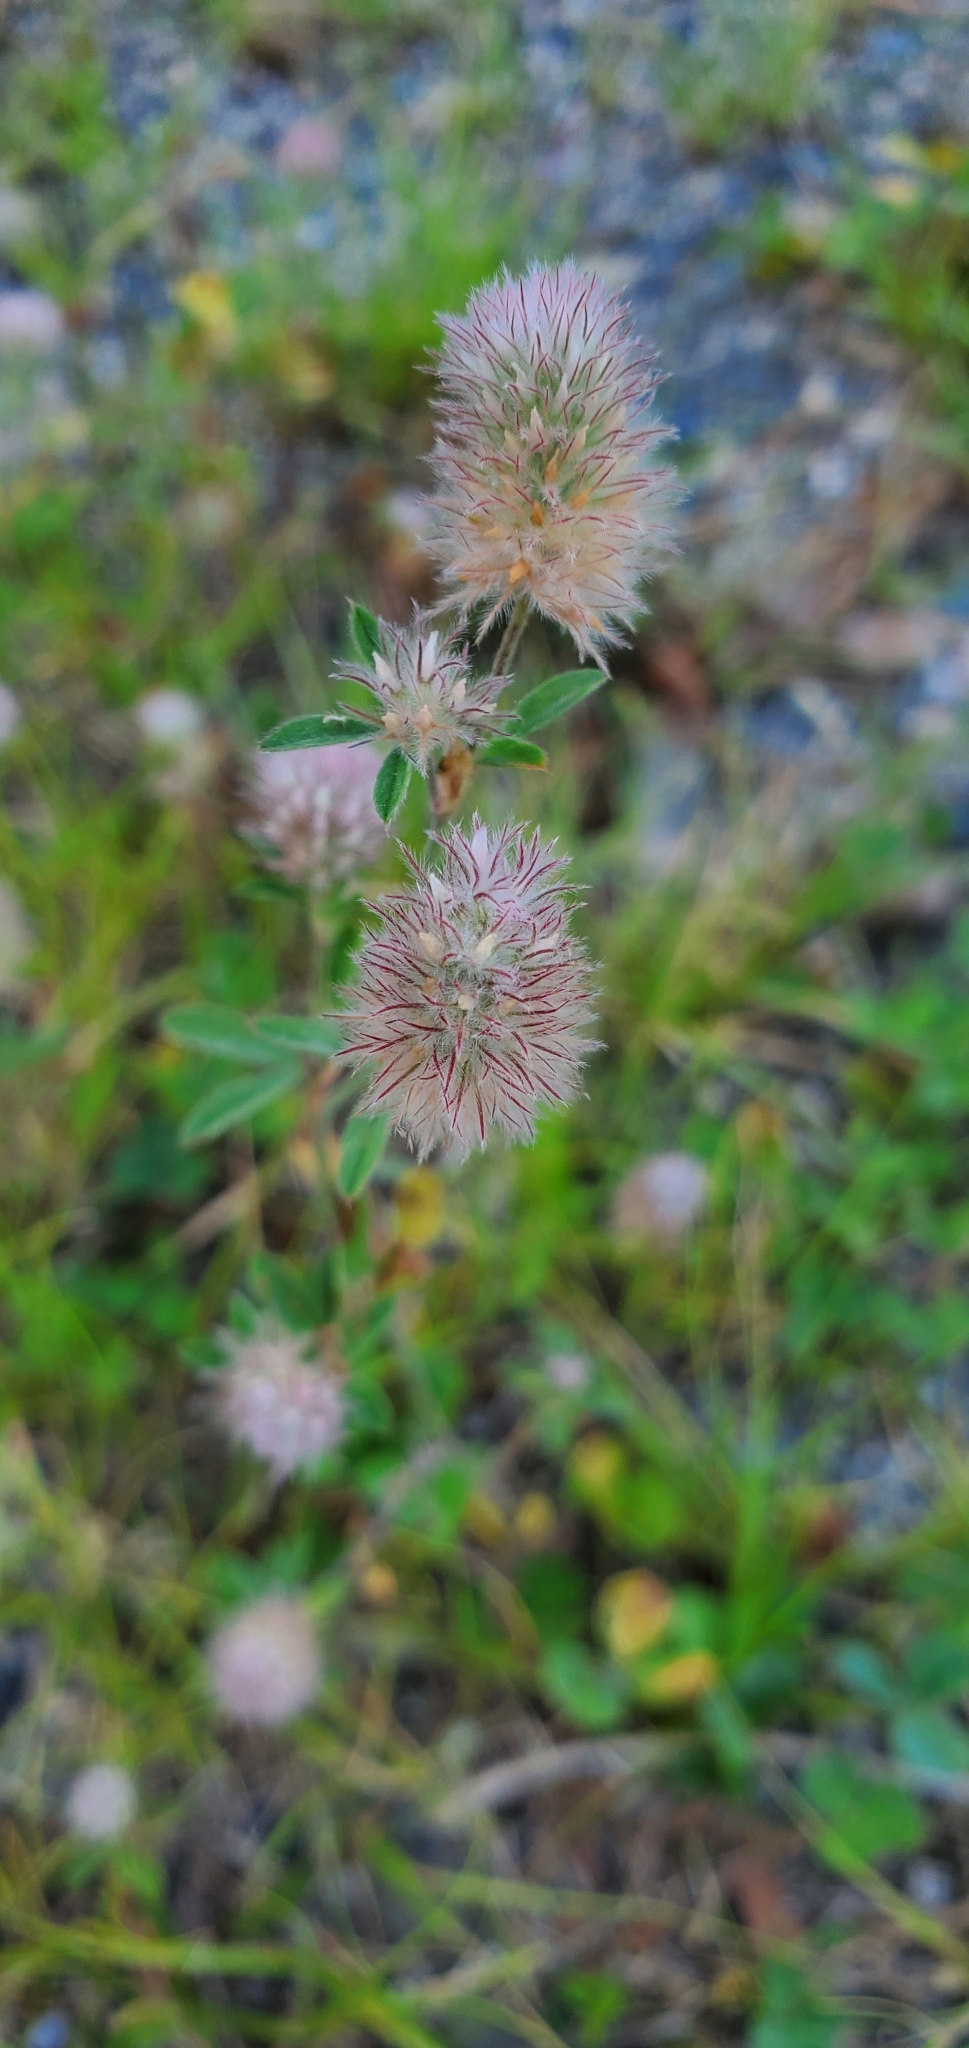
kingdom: Plantae
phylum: Tracheophyta
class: Magnoliopsida
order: Fabales
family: Fabaceae
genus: Trifolium
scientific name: Trifolium arvense
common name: Hare's-foot clover
